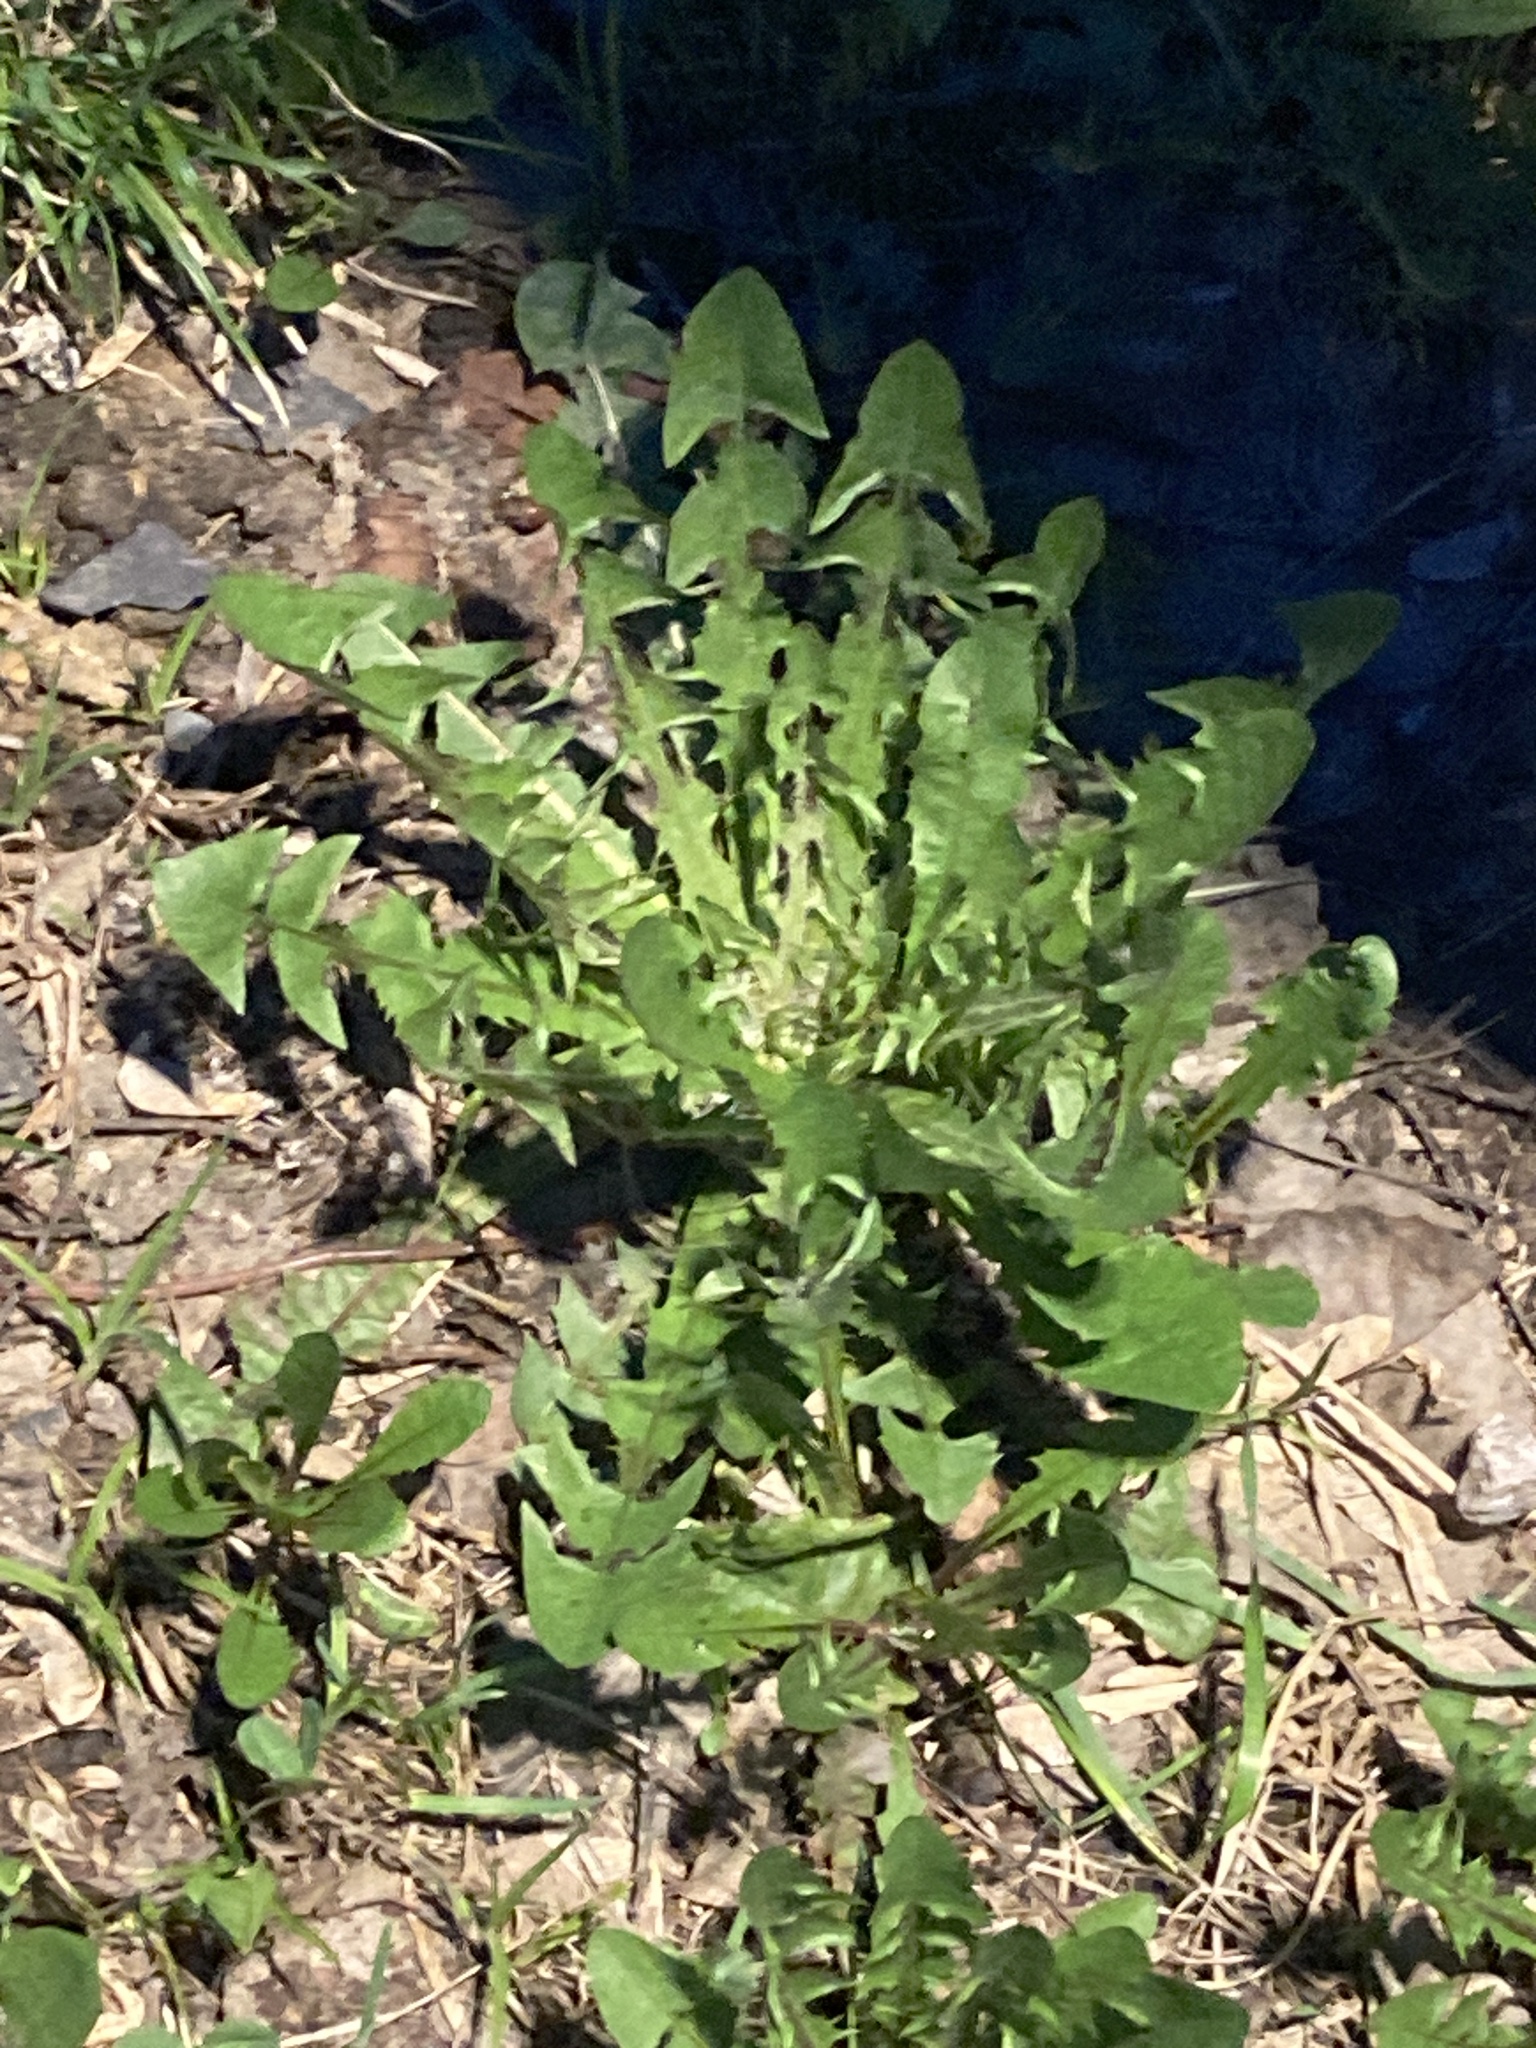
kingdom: Plantae
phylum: Tracheophyta
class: Magnoliopsida
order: Asterales
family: Asteraceae
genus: Taraxacum
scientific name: Taraxacum officinale
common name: Common dandelion
